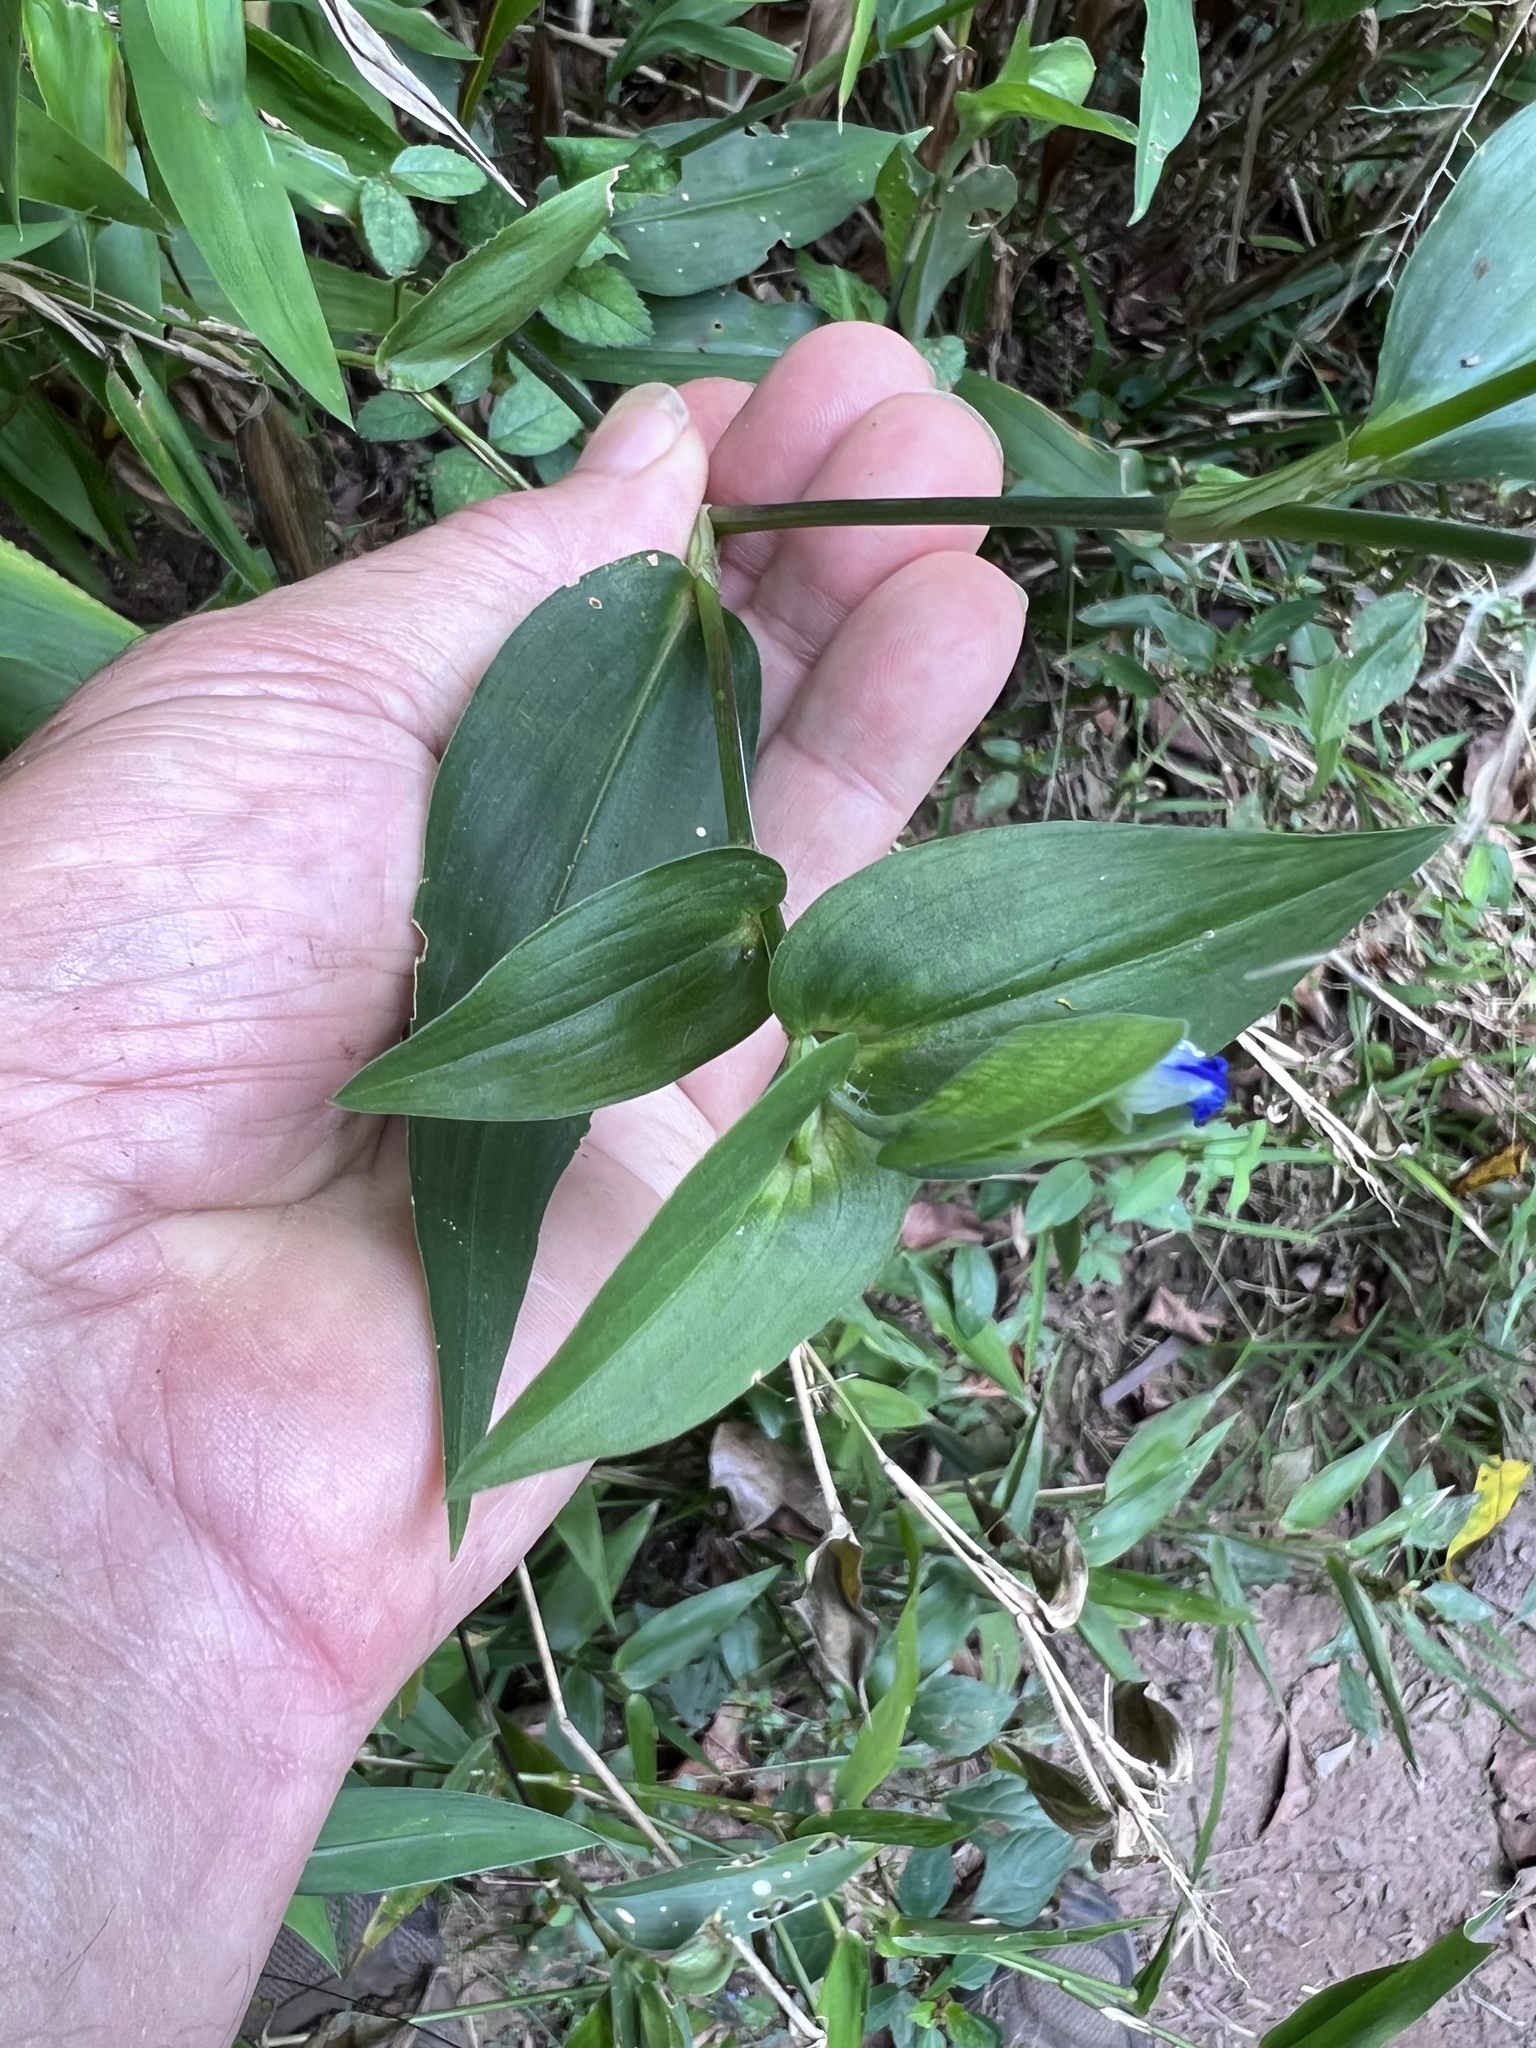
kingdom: Plantae
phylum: Tracheophyta
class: Liliopsida
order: Commelinales
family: Commelinaceae
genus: Commelina
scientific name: Commelina communis
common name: Asiatic dayflower
